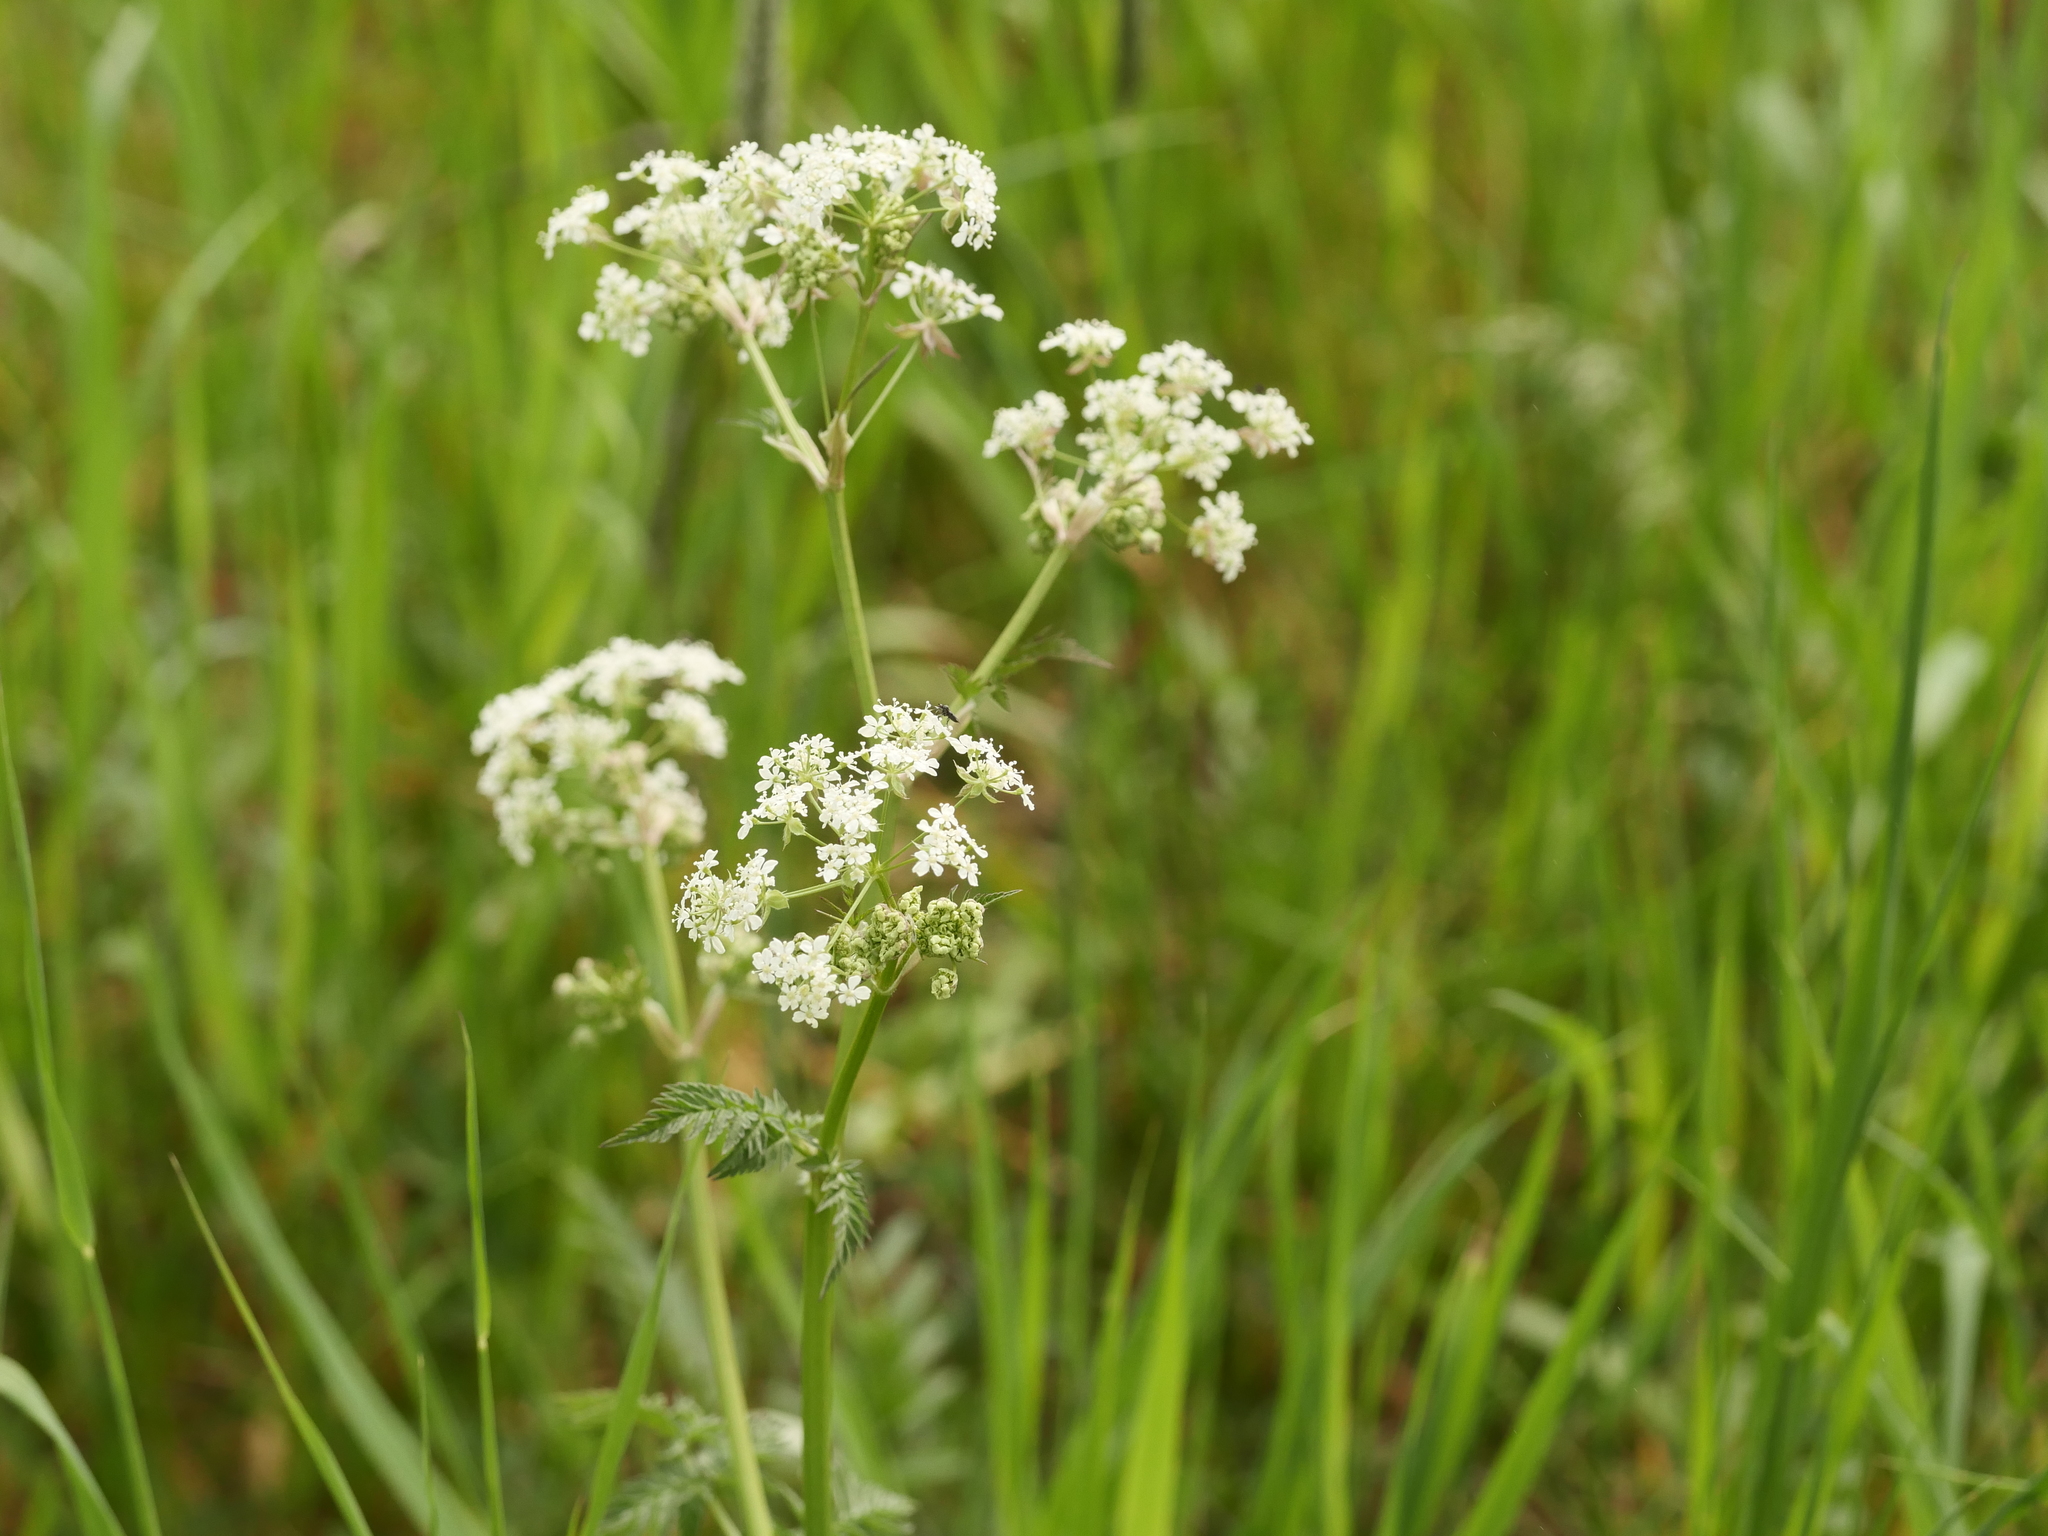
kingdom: Plantae
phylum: Tracheophyta
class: Magnoliopsida
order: Apiales
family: Apiaceae
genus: Anthriscus
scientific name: Anthriscus sylvestris
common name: Cow parsley
